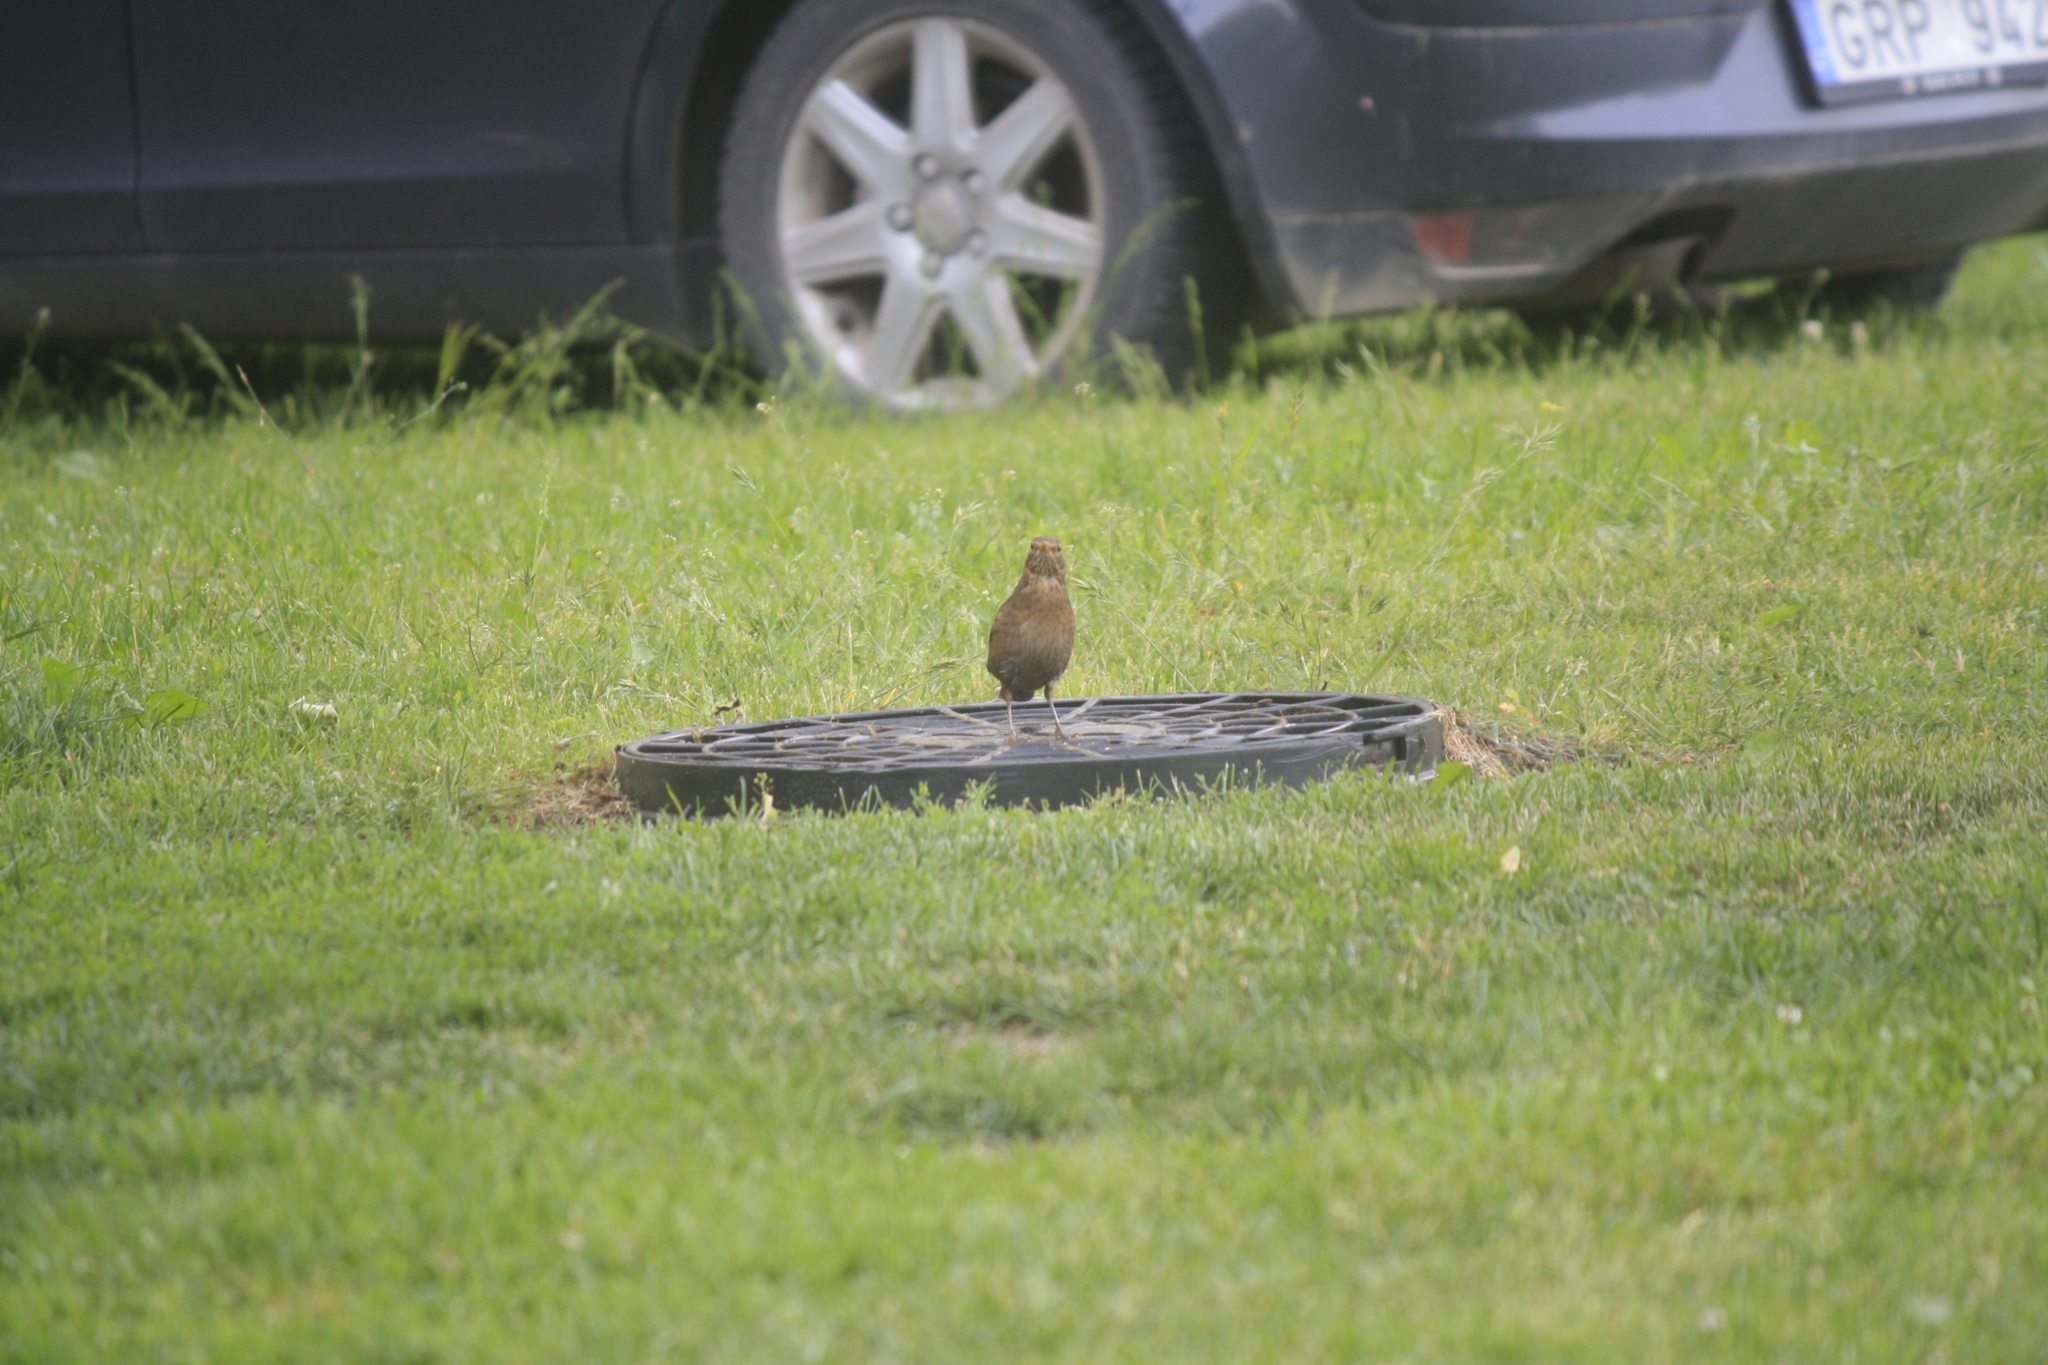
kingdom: Animalia
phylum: Chordata
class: Aves
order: Passeriformes
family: Turdidae
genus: Turdus
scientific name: Turdus merula
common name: Common blackbird
